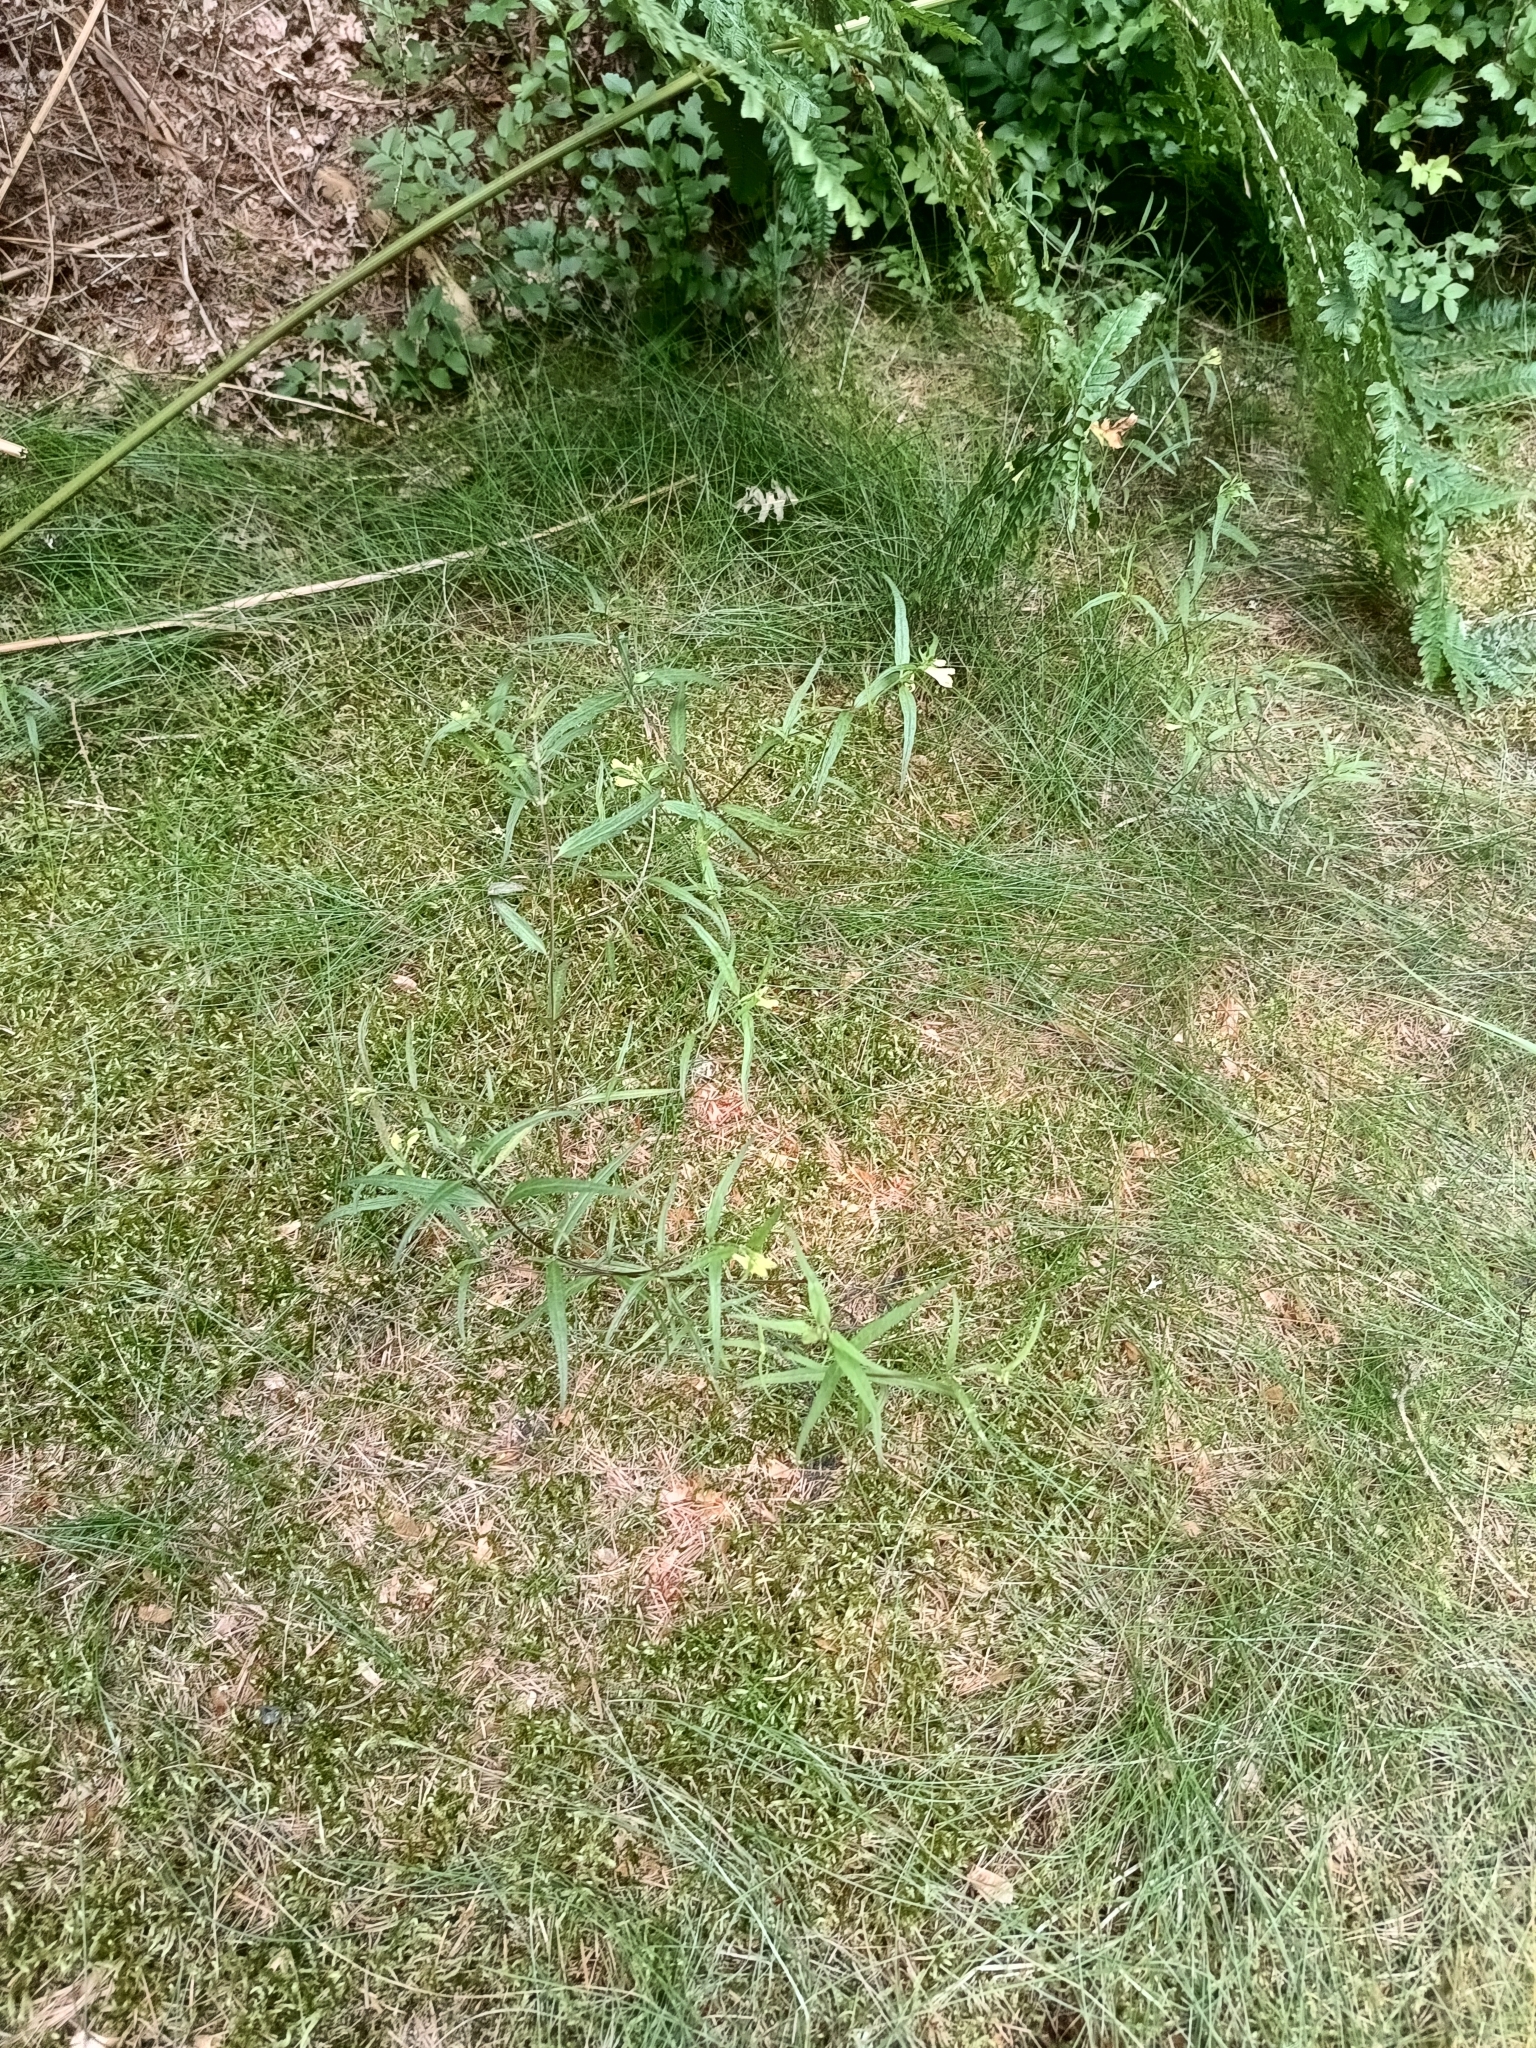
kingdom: Plantae
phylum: Tracheophyta
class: Magnoliopsida
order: Lamiales
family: Orobanchaceae
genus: Melampyrum
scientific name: Melampyrum pratense
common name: Common cow-wheat
